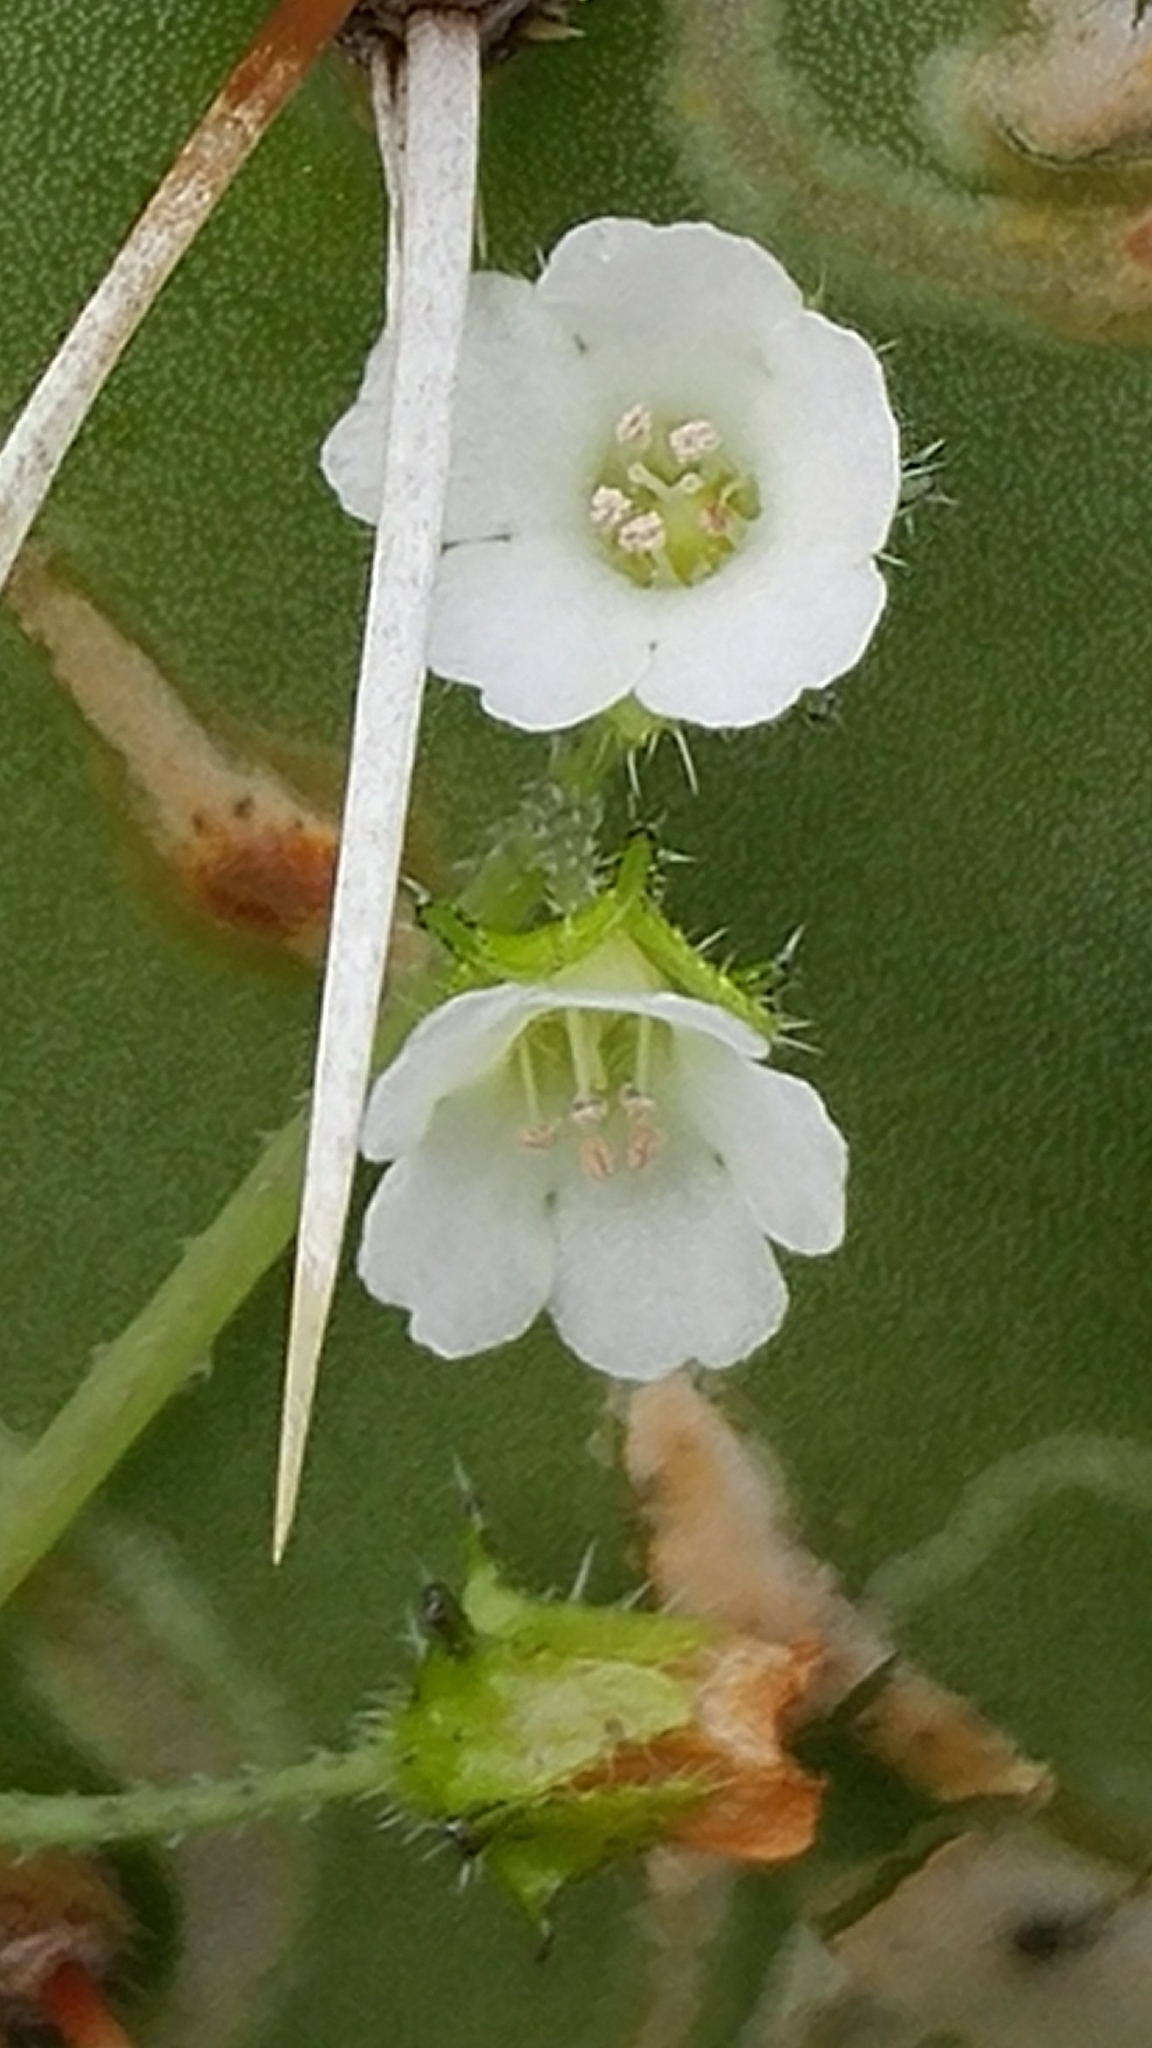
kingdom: Plantae
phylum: Tracheophyta
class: Magnoliopsida
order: Boraginales
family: Hydrophyllaceae
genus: Pholistoma
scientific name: Pholistoma racemosum
